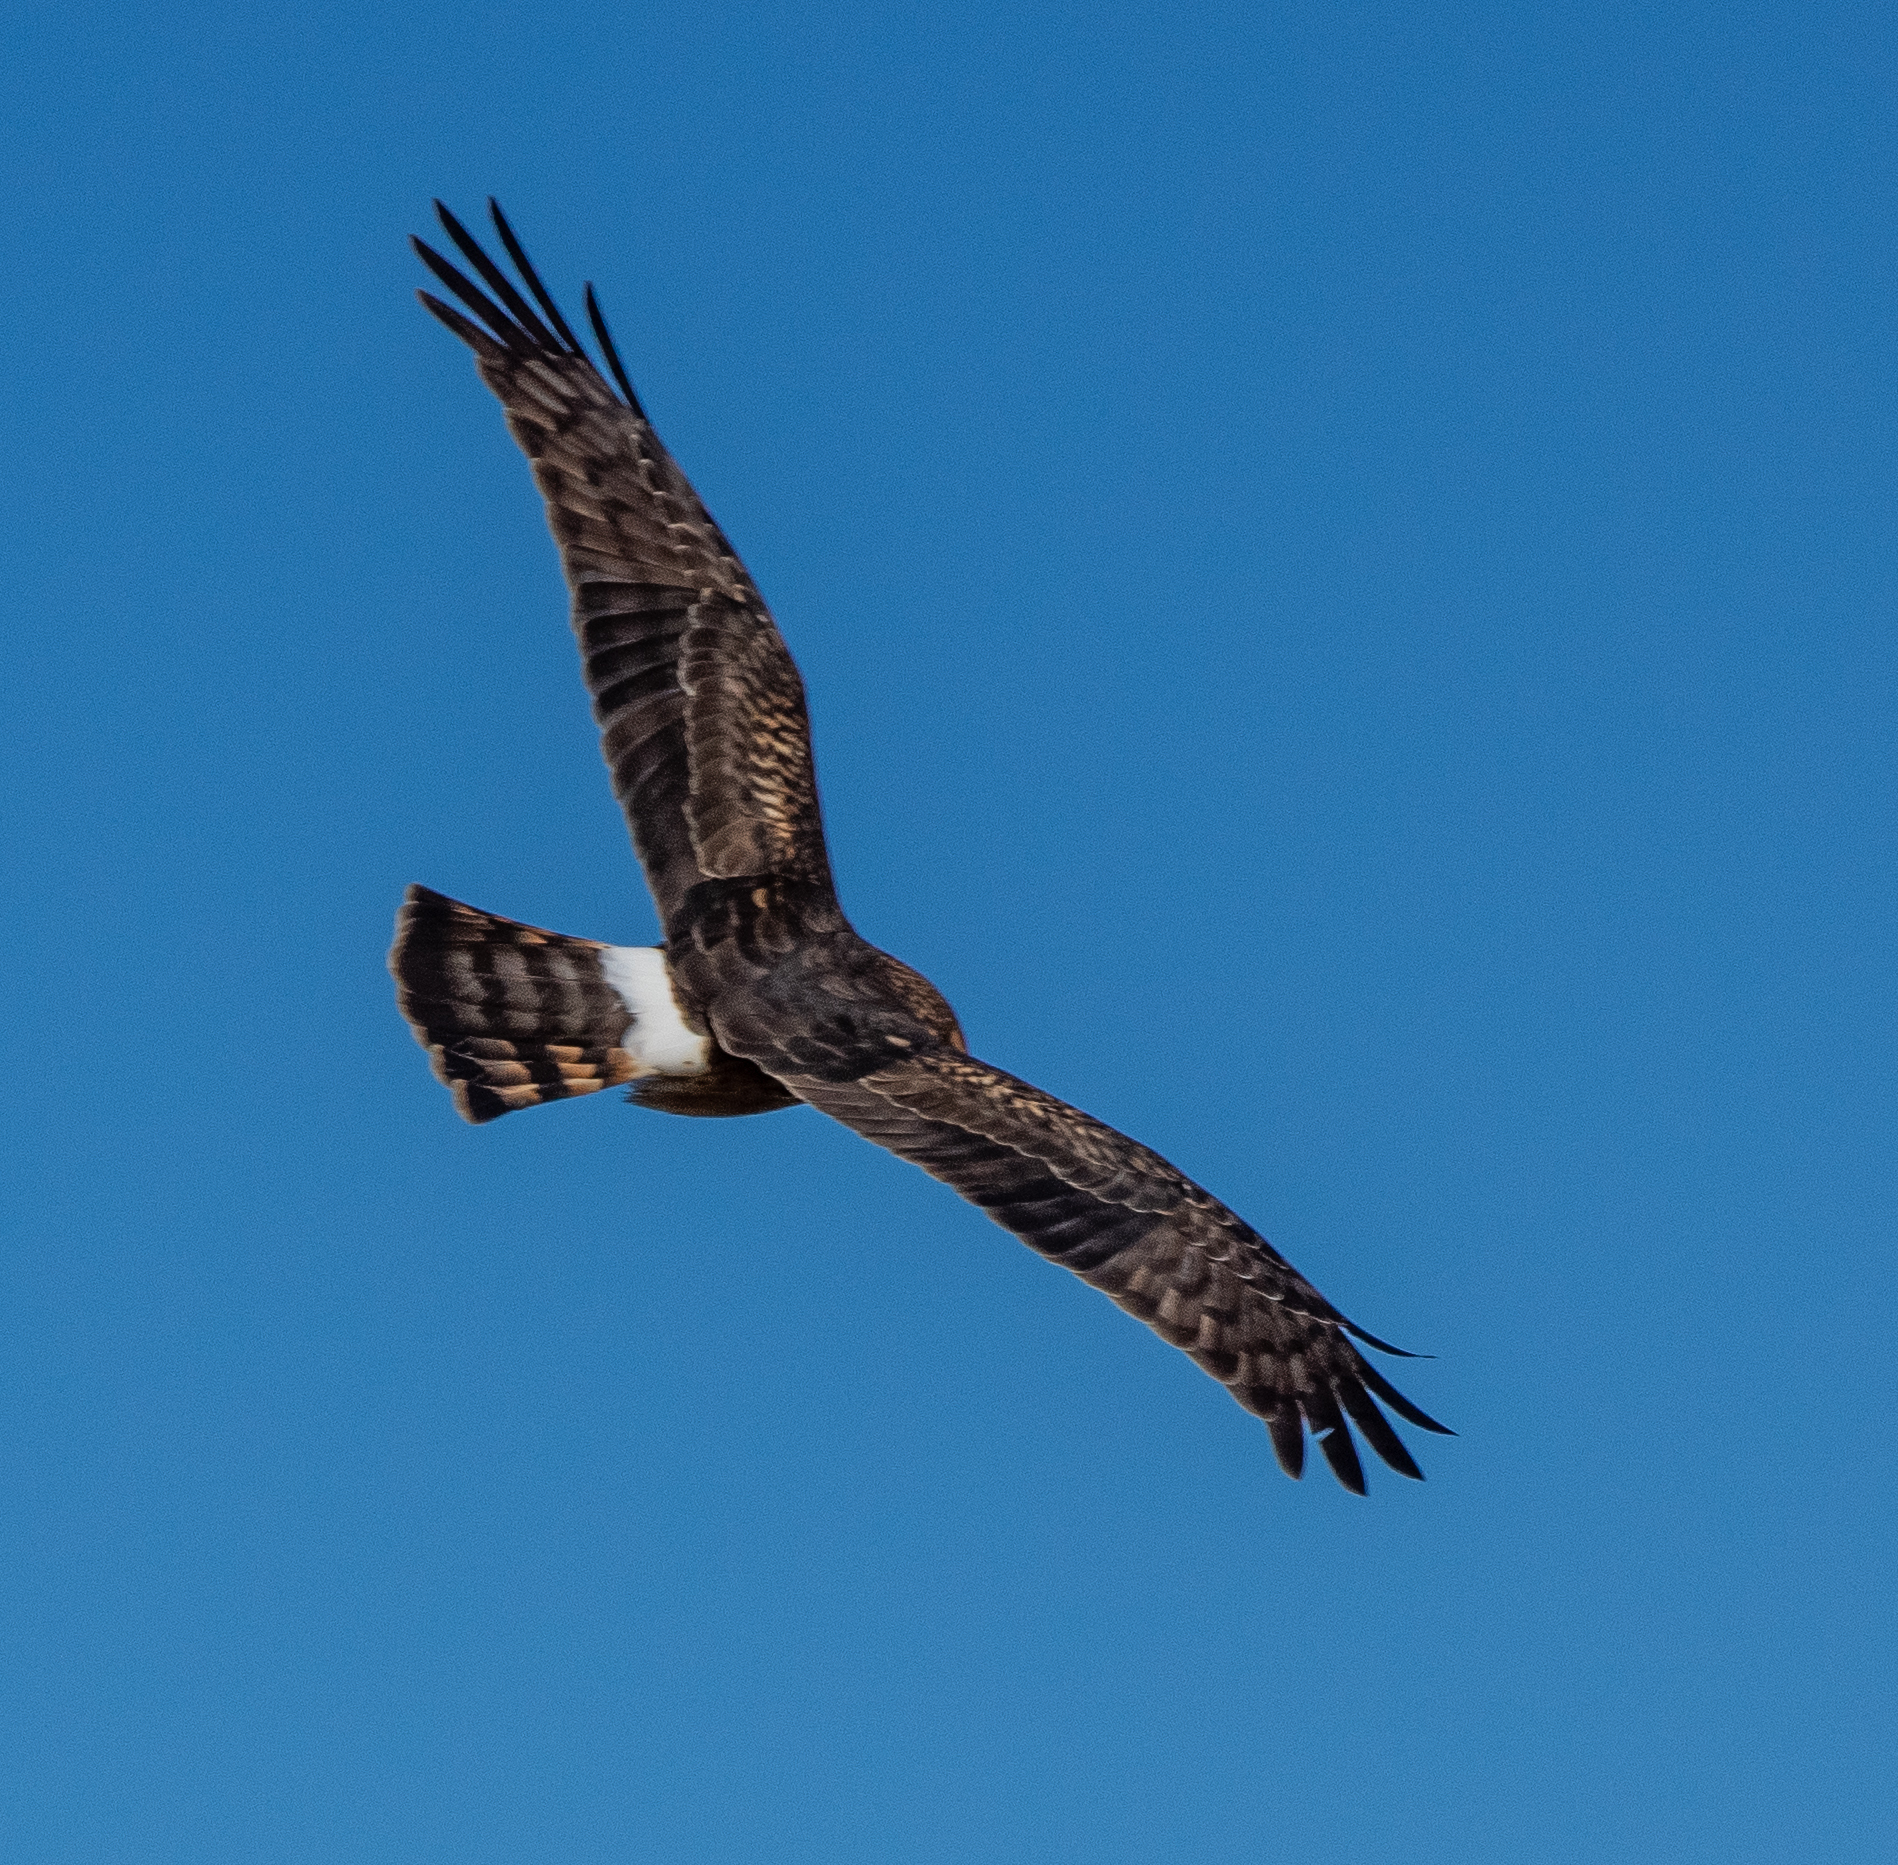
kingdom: Animalia
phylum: Chordata
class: Aves
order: Accipitriformes
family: Accipitridae
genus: Circus
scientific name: Circus cyaneus
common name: Hen harrier
